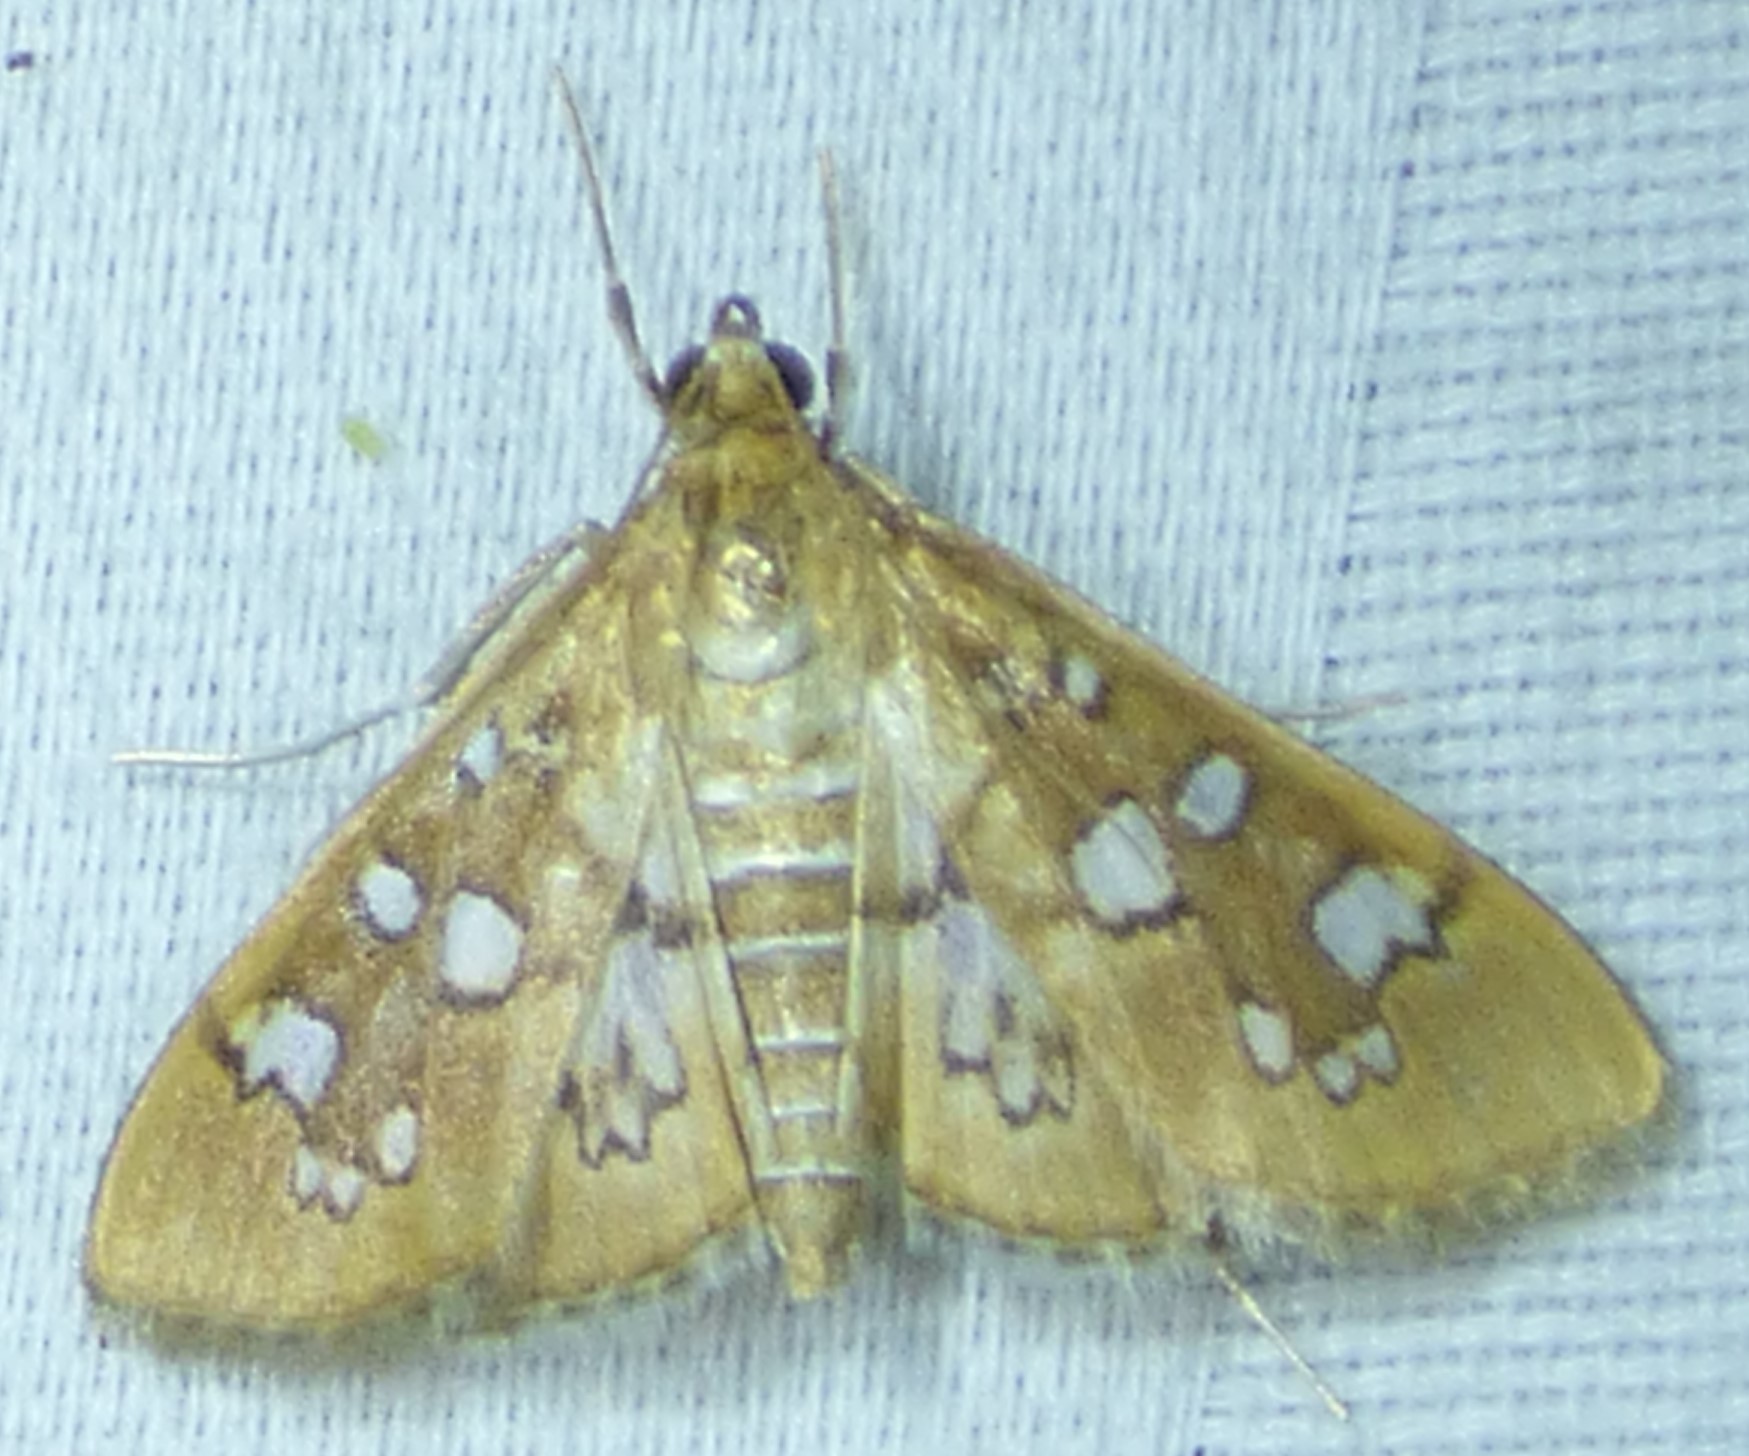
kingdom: Animalia
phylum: Arthropoda
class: Insecta
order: Lepidoptera
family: Crambidae
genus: Samea
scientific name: Samea baccatalis
